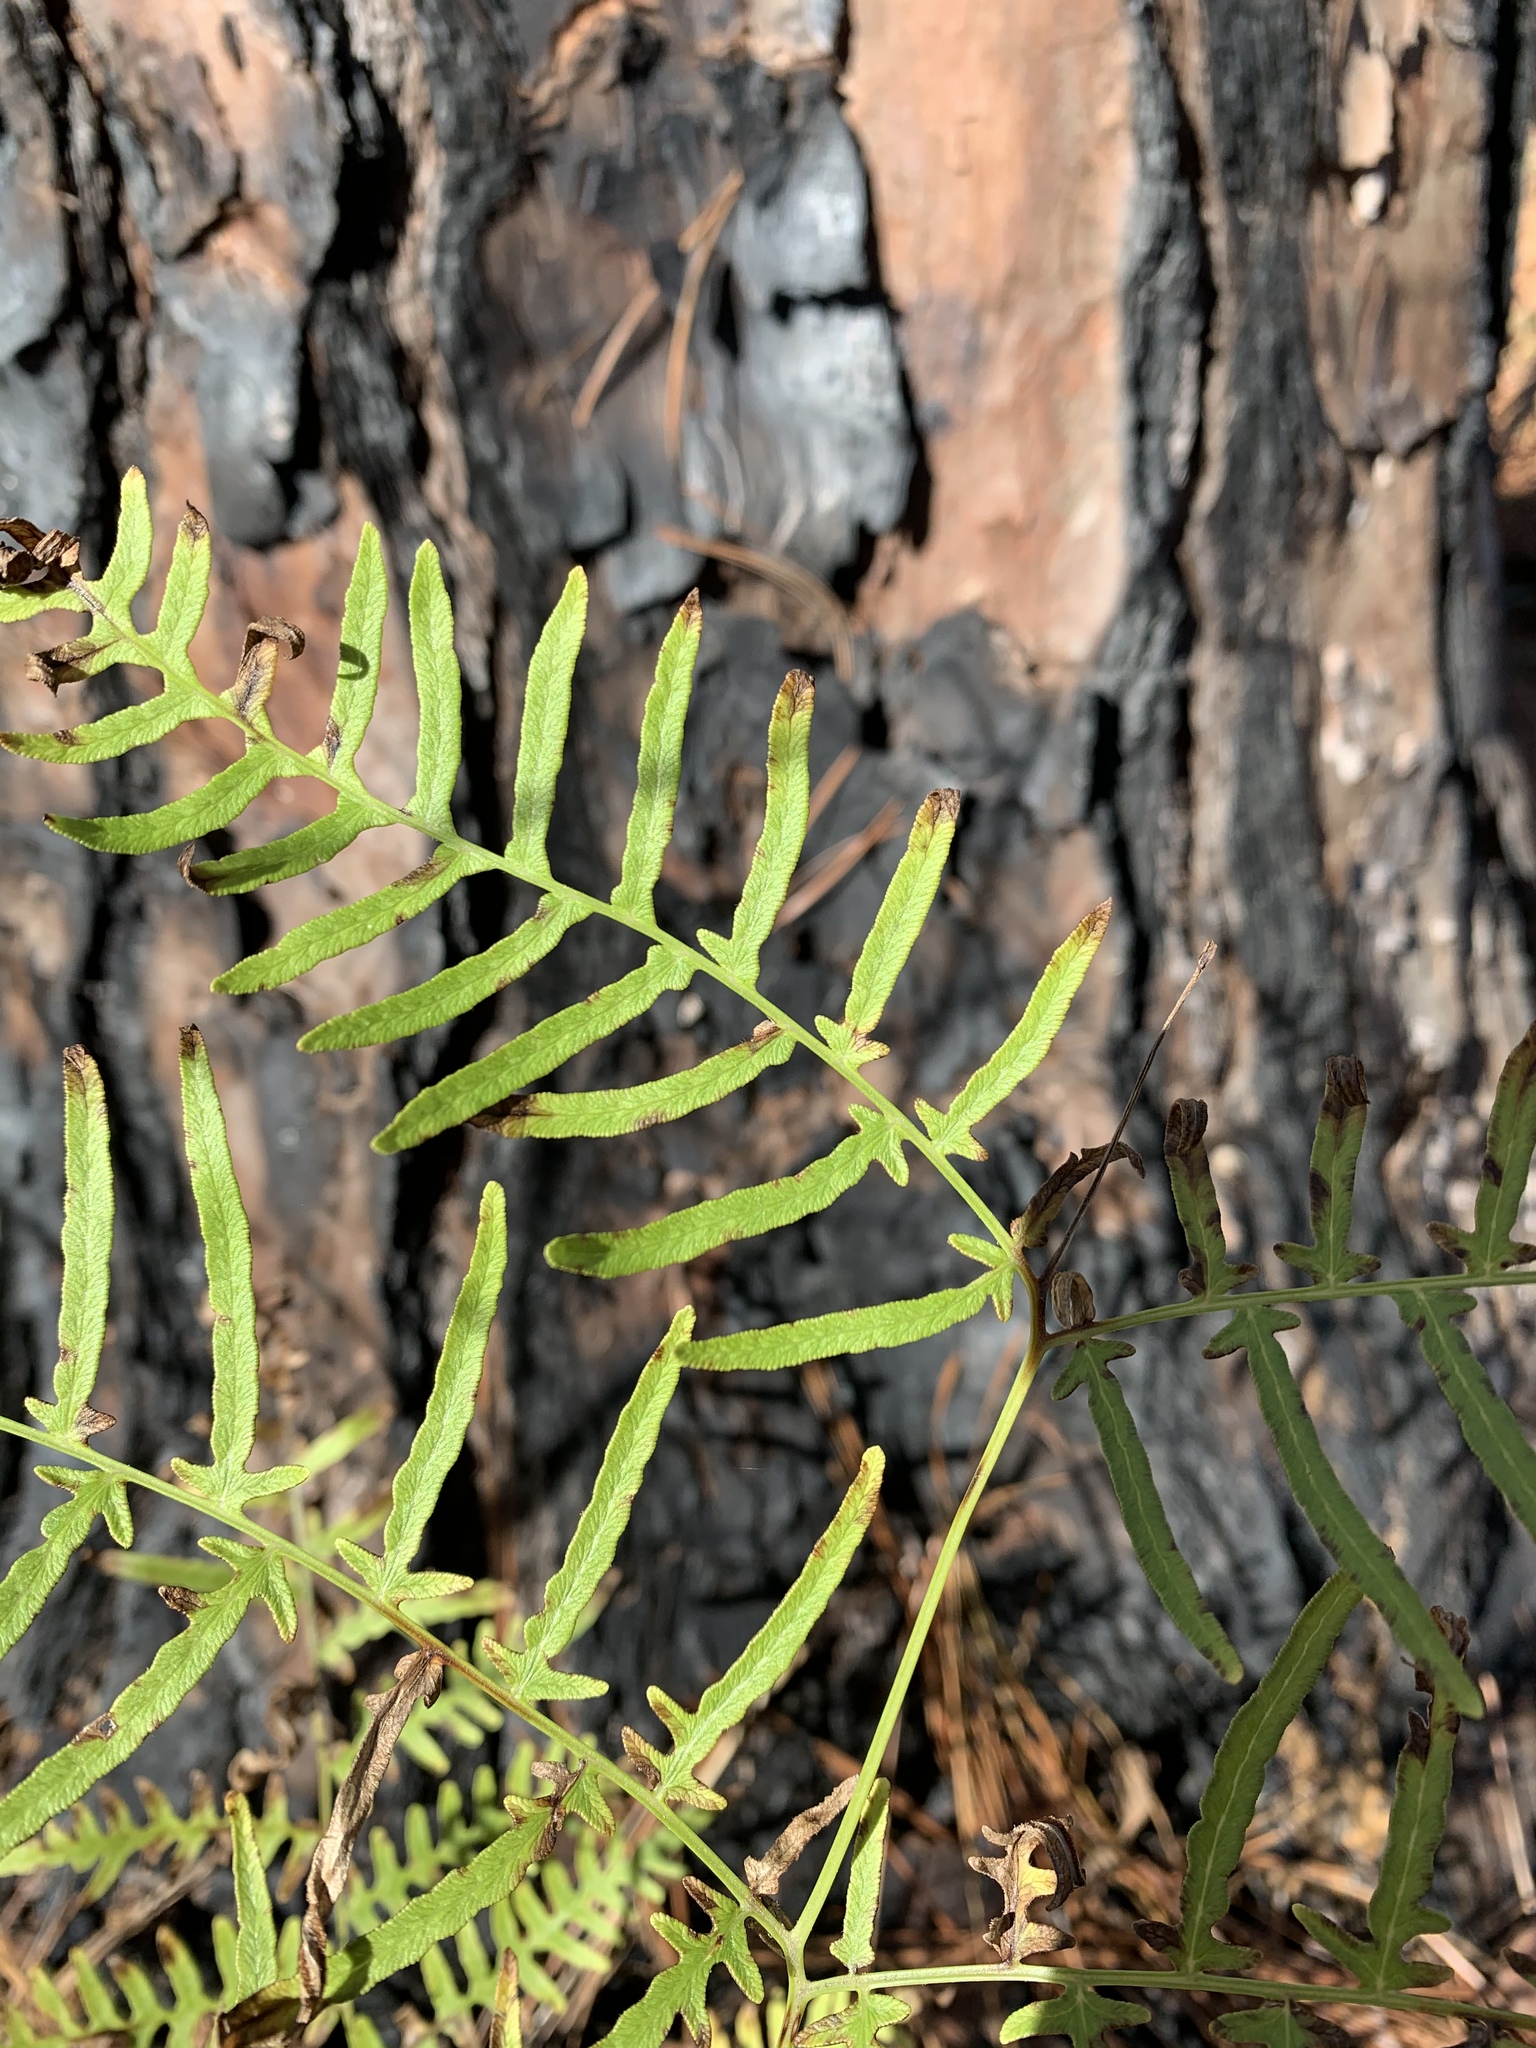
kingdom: Plantae
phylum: Tracheophyta
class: Polypodiopsida
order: Polypodiales
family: Dennstaedtiaceae
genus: Pteridium
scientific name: Pteridium
